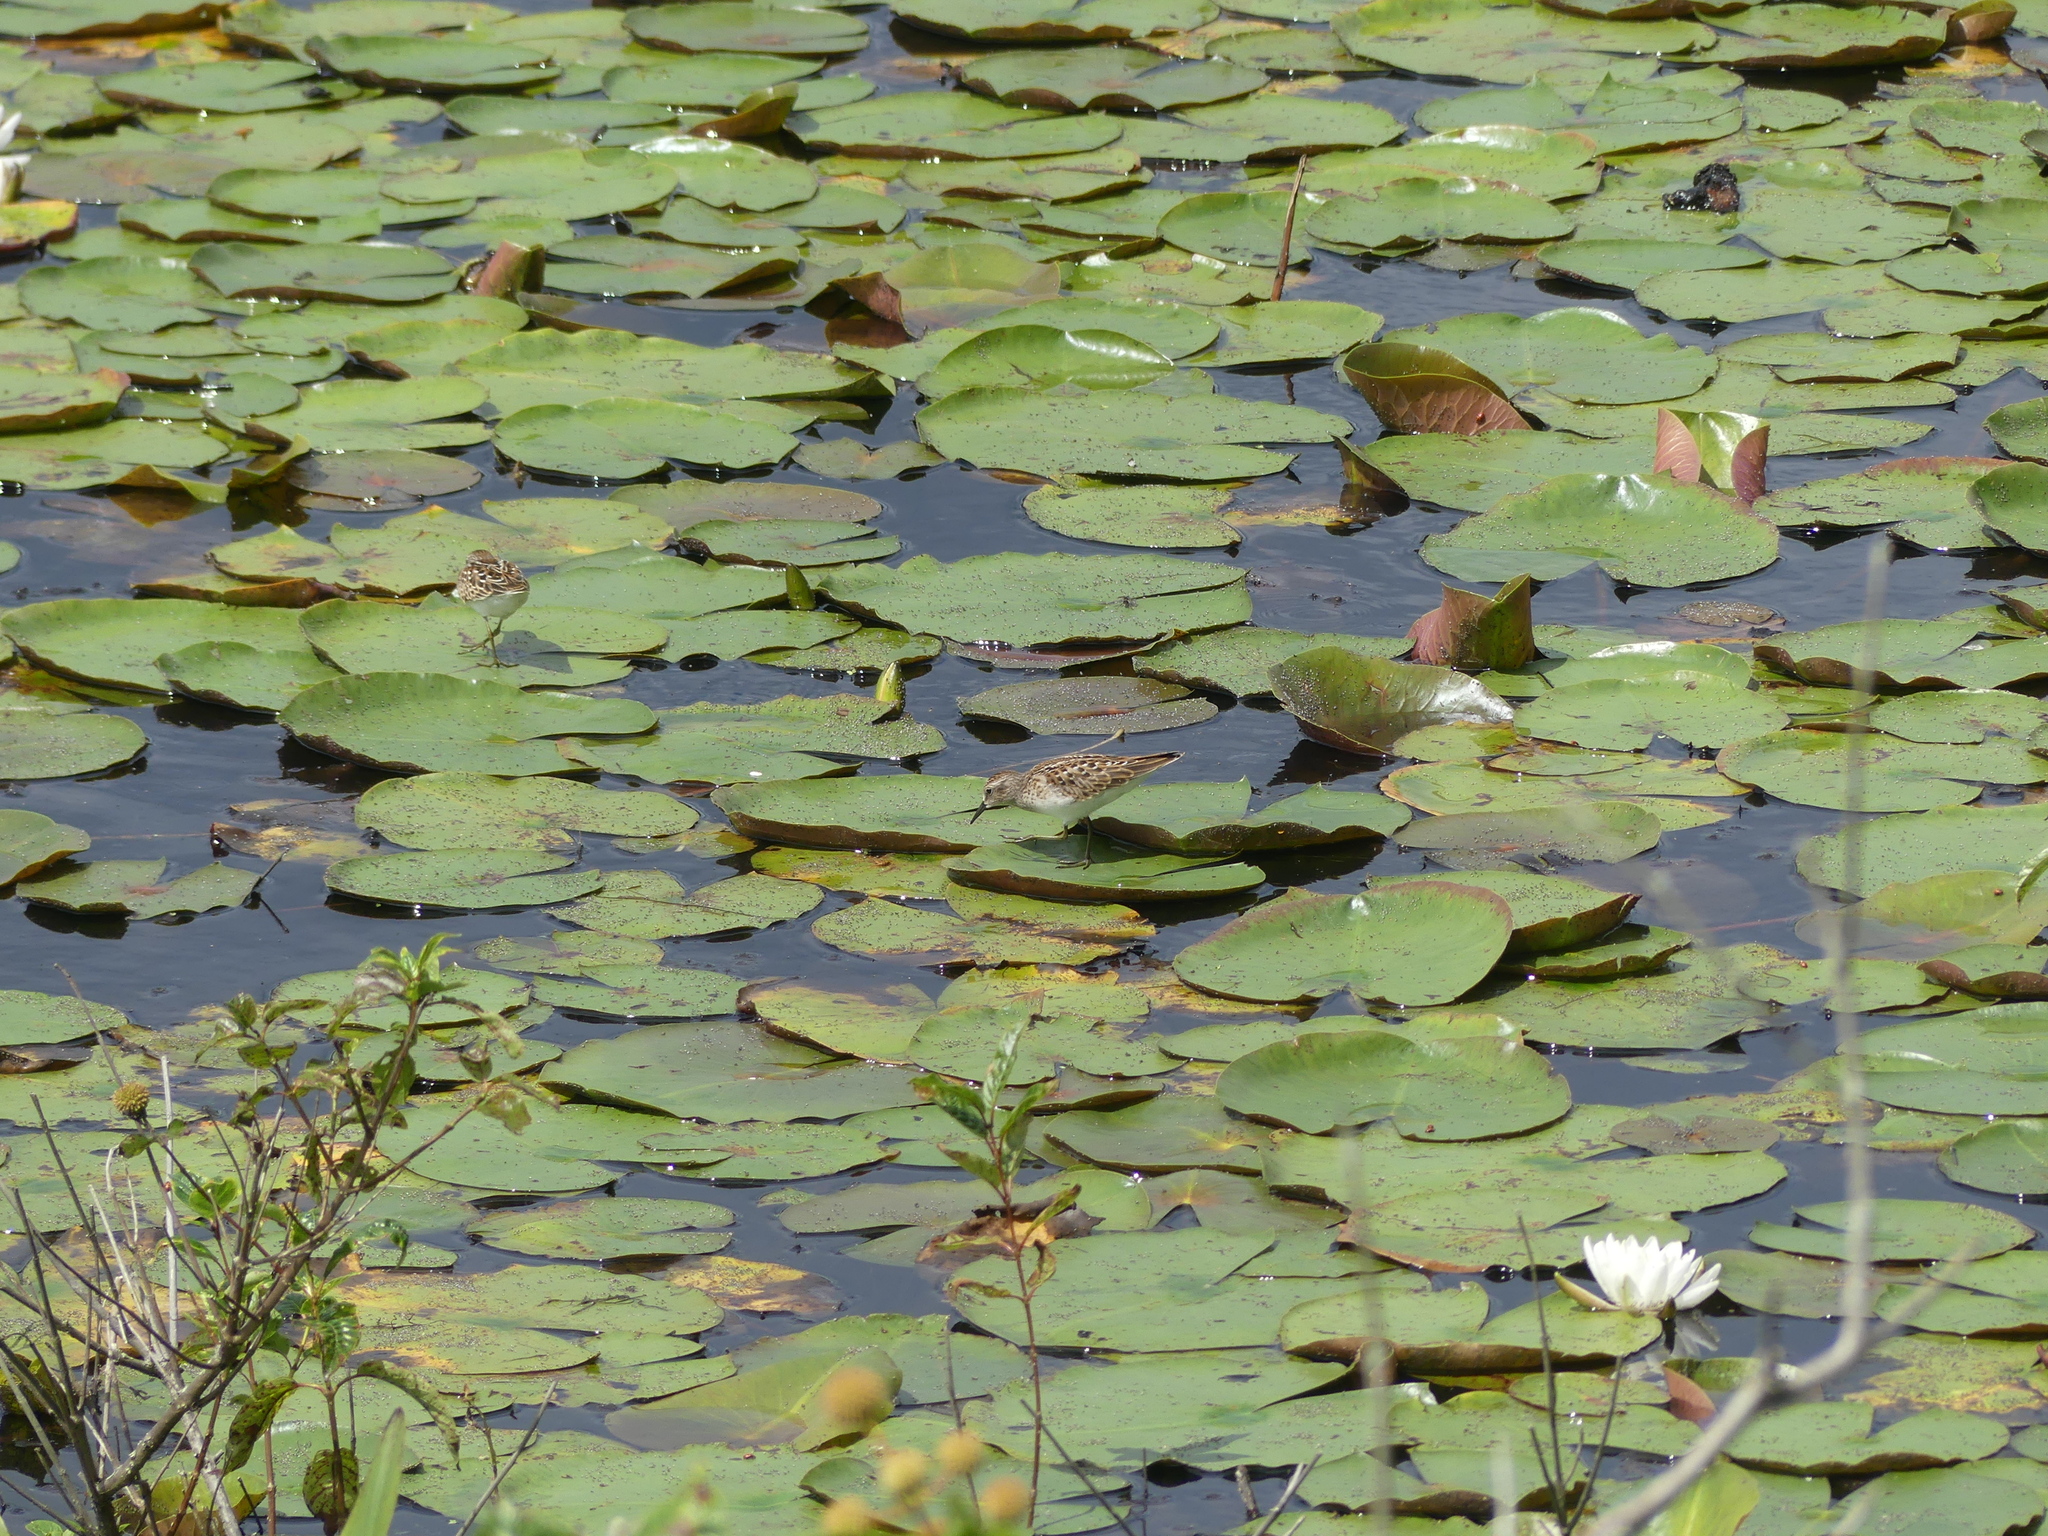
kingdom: Animalia
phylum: Chordata
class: Aves
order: Charadriiformes
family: Scolopacidae
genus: Calidris
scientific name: Calidris minutilla
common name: Least sandpiper
